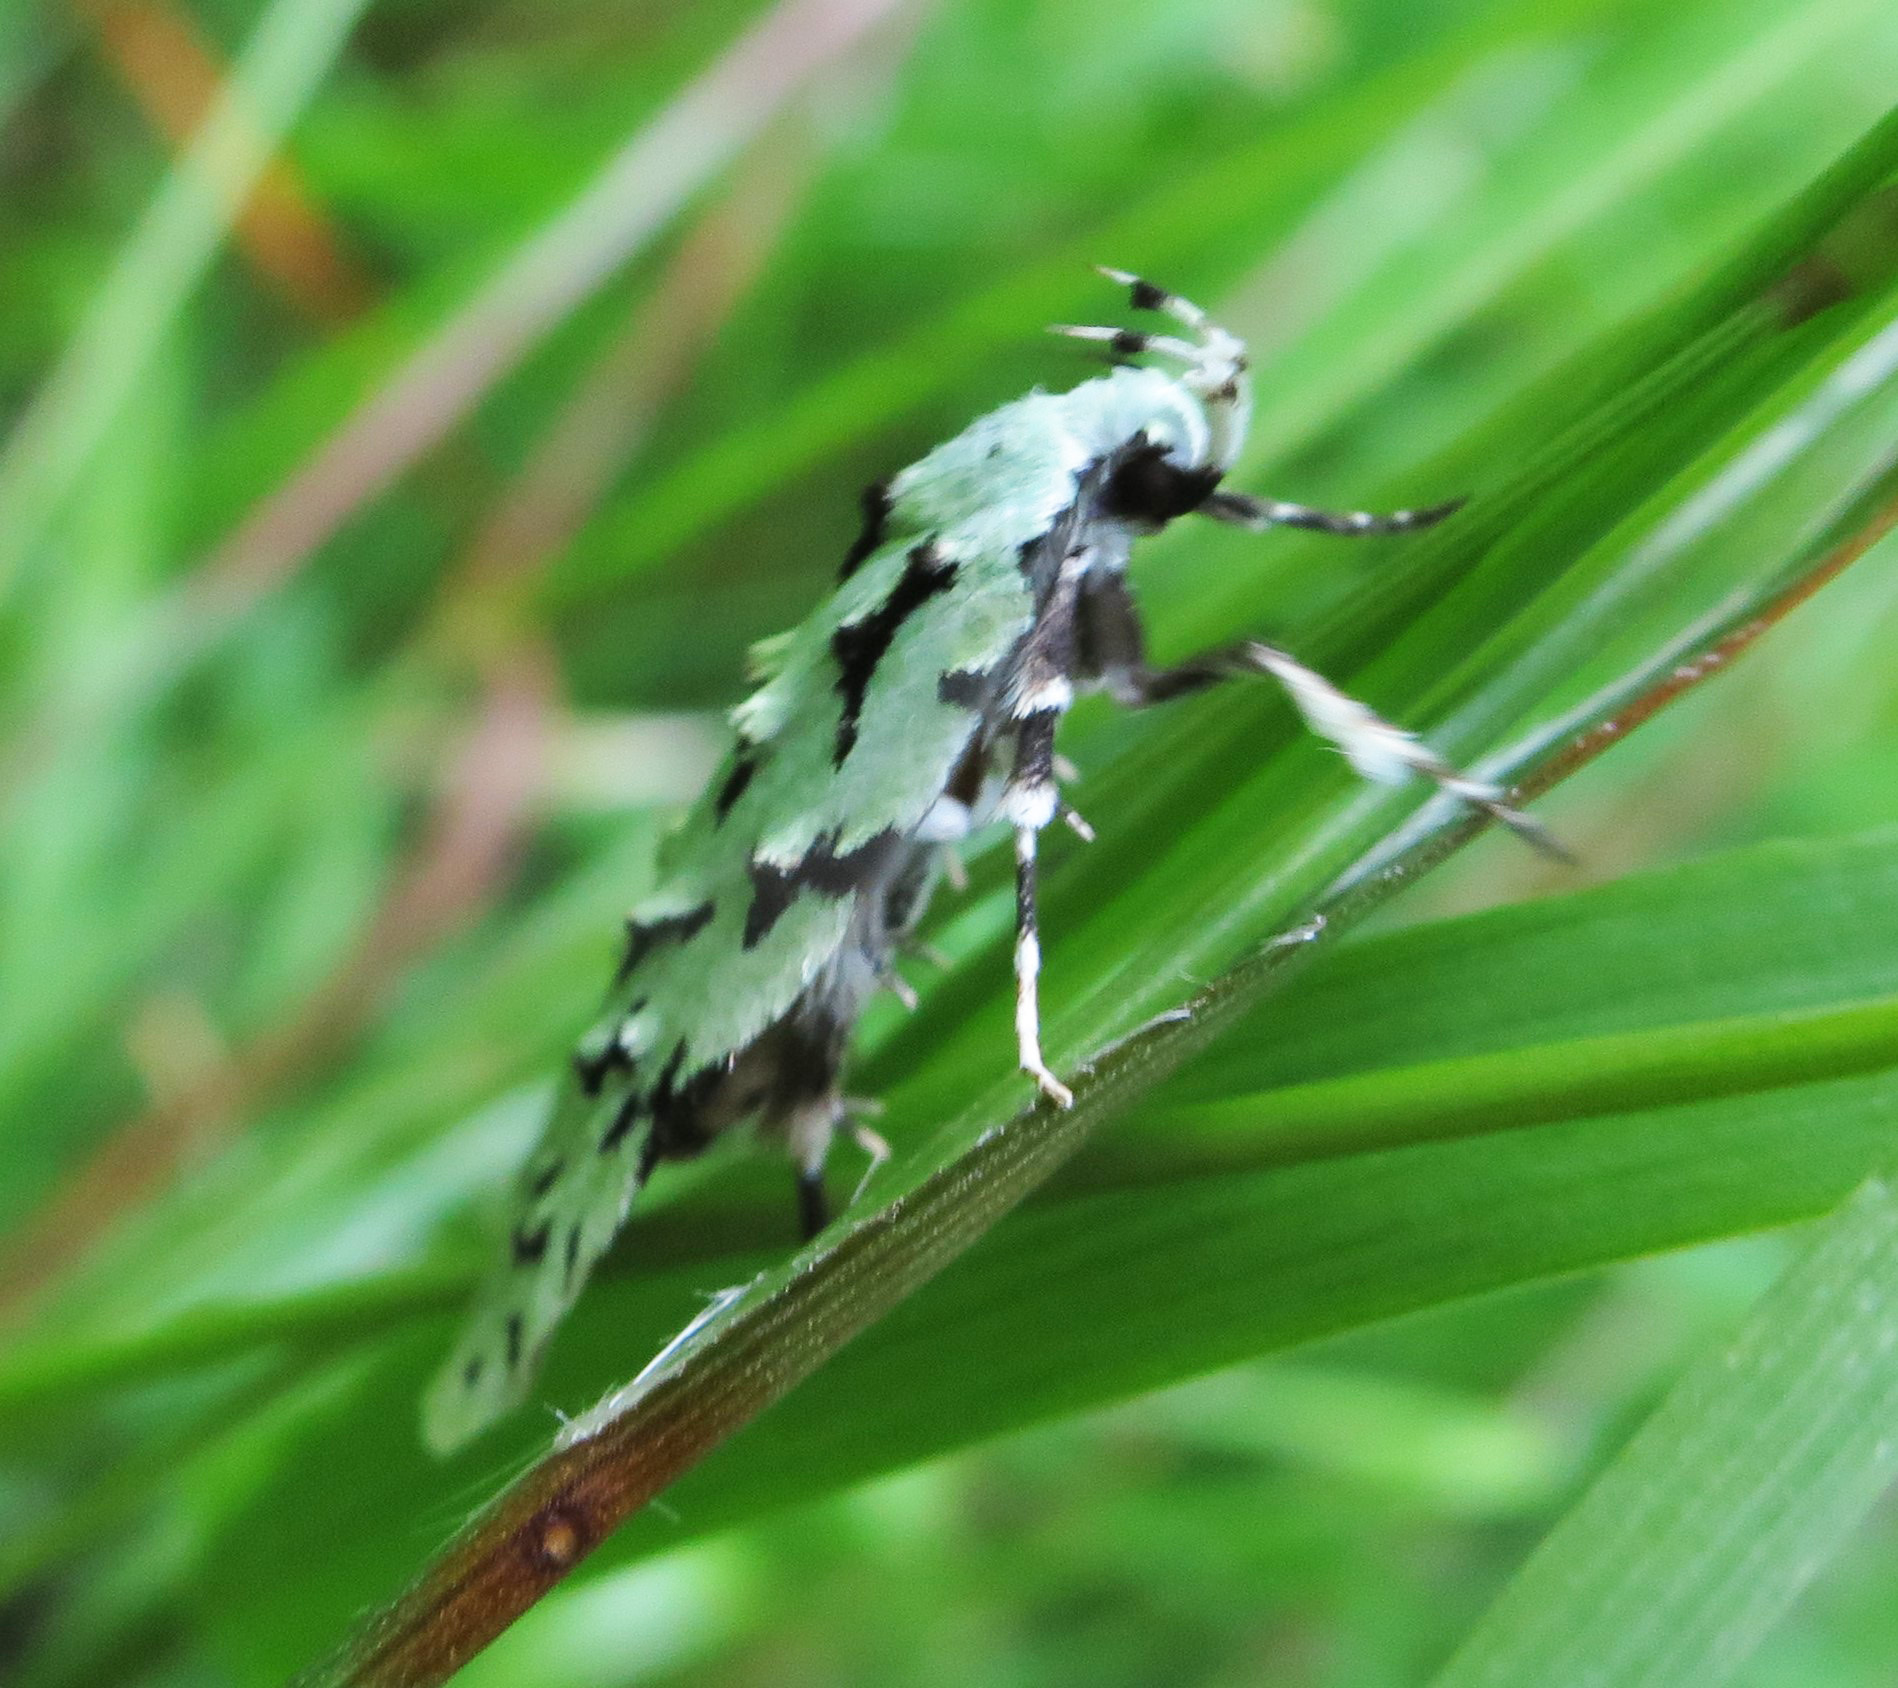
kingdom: Animalia
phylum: Arthropoda
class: Insecta
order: Lepidoptera
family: Oecophoridae
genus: Izatha
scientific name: Izatha peroneanella
